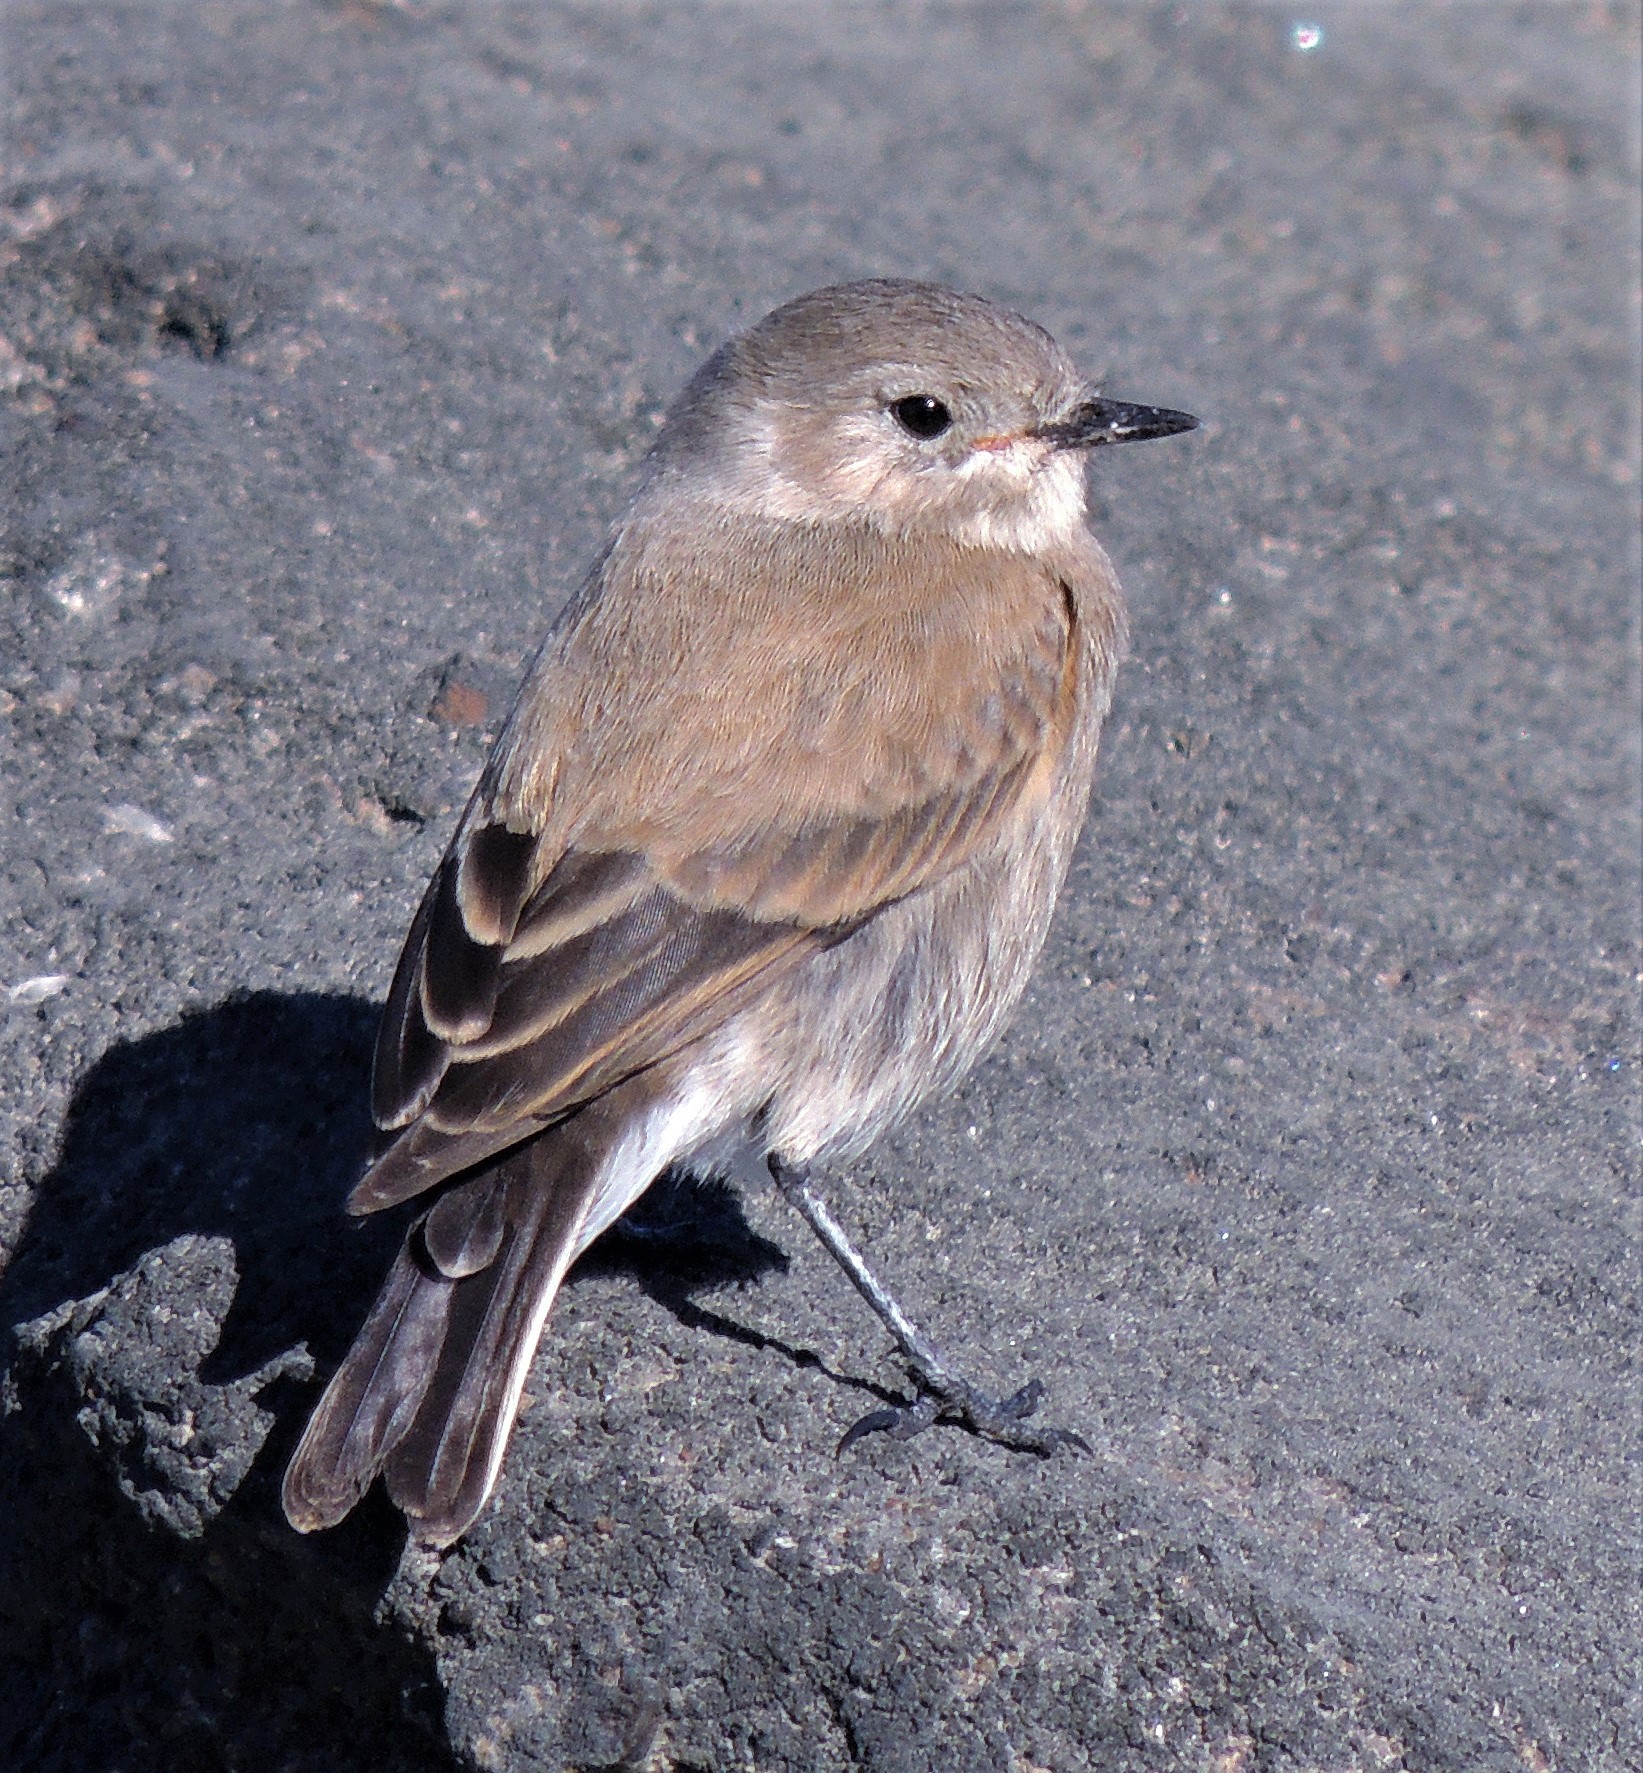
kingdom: Animalia
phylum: Chordata
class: Aves
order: Passeriformes
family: Tyrannidae
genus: Lessonia
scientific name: Lessonia rufa
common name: Austral negrito
